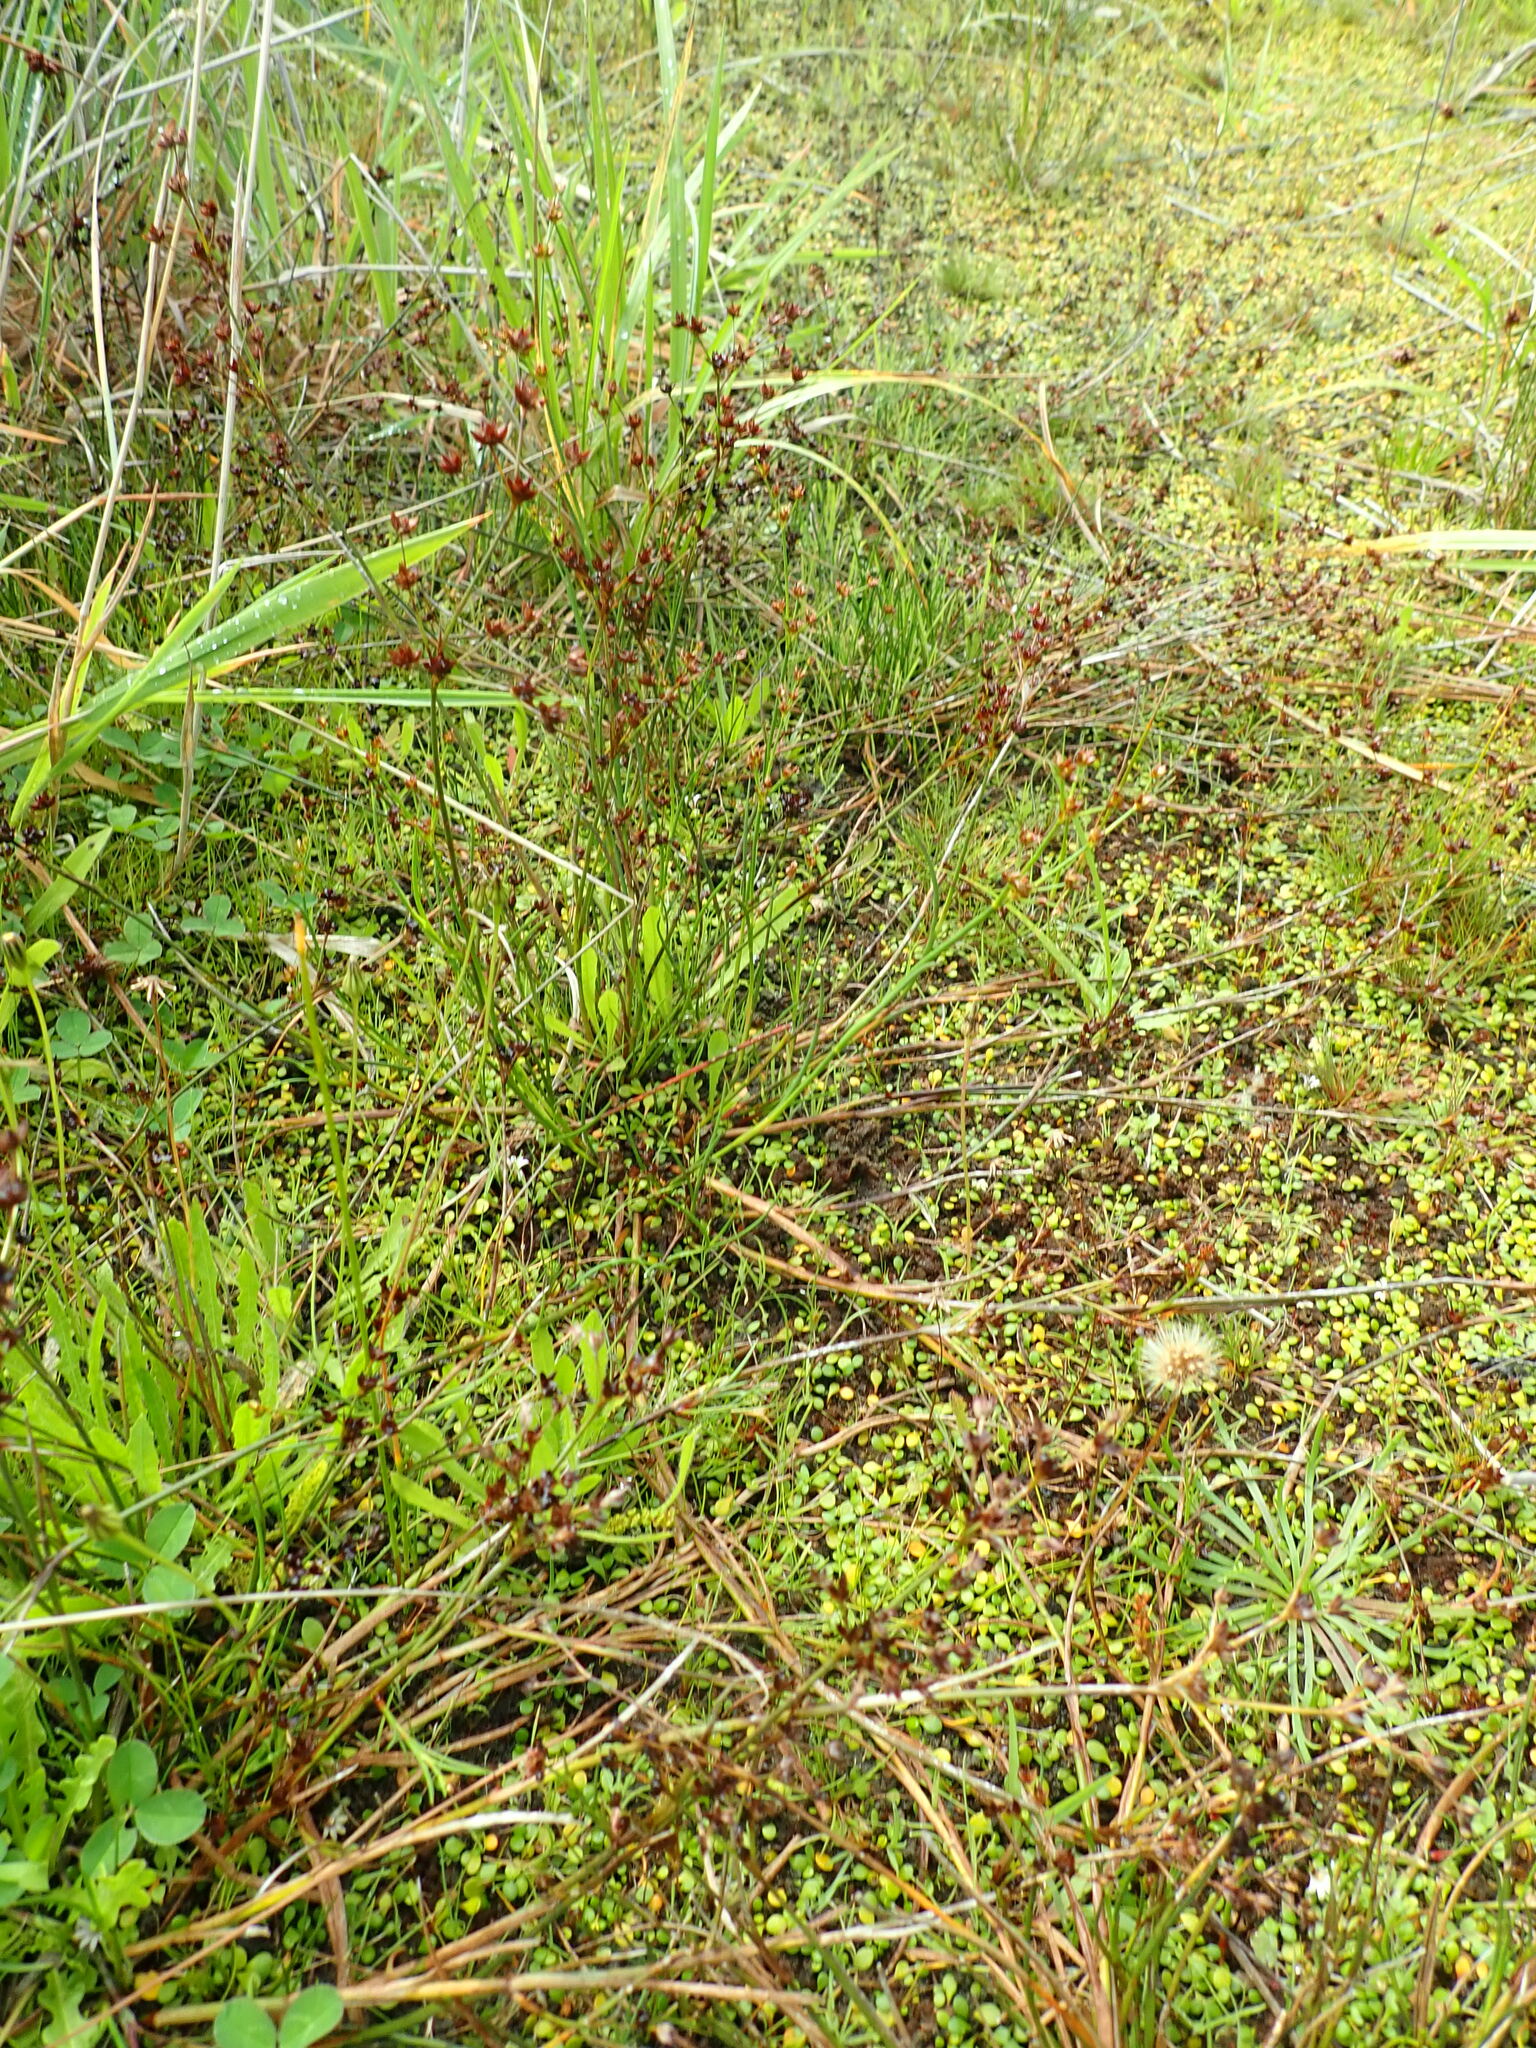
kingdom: Plantae
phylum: Tracheophyta
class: Liliopsida
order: Poales
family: Juncaceae
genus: Juncus
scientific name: Juncus articulatus
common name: Jointed rush
